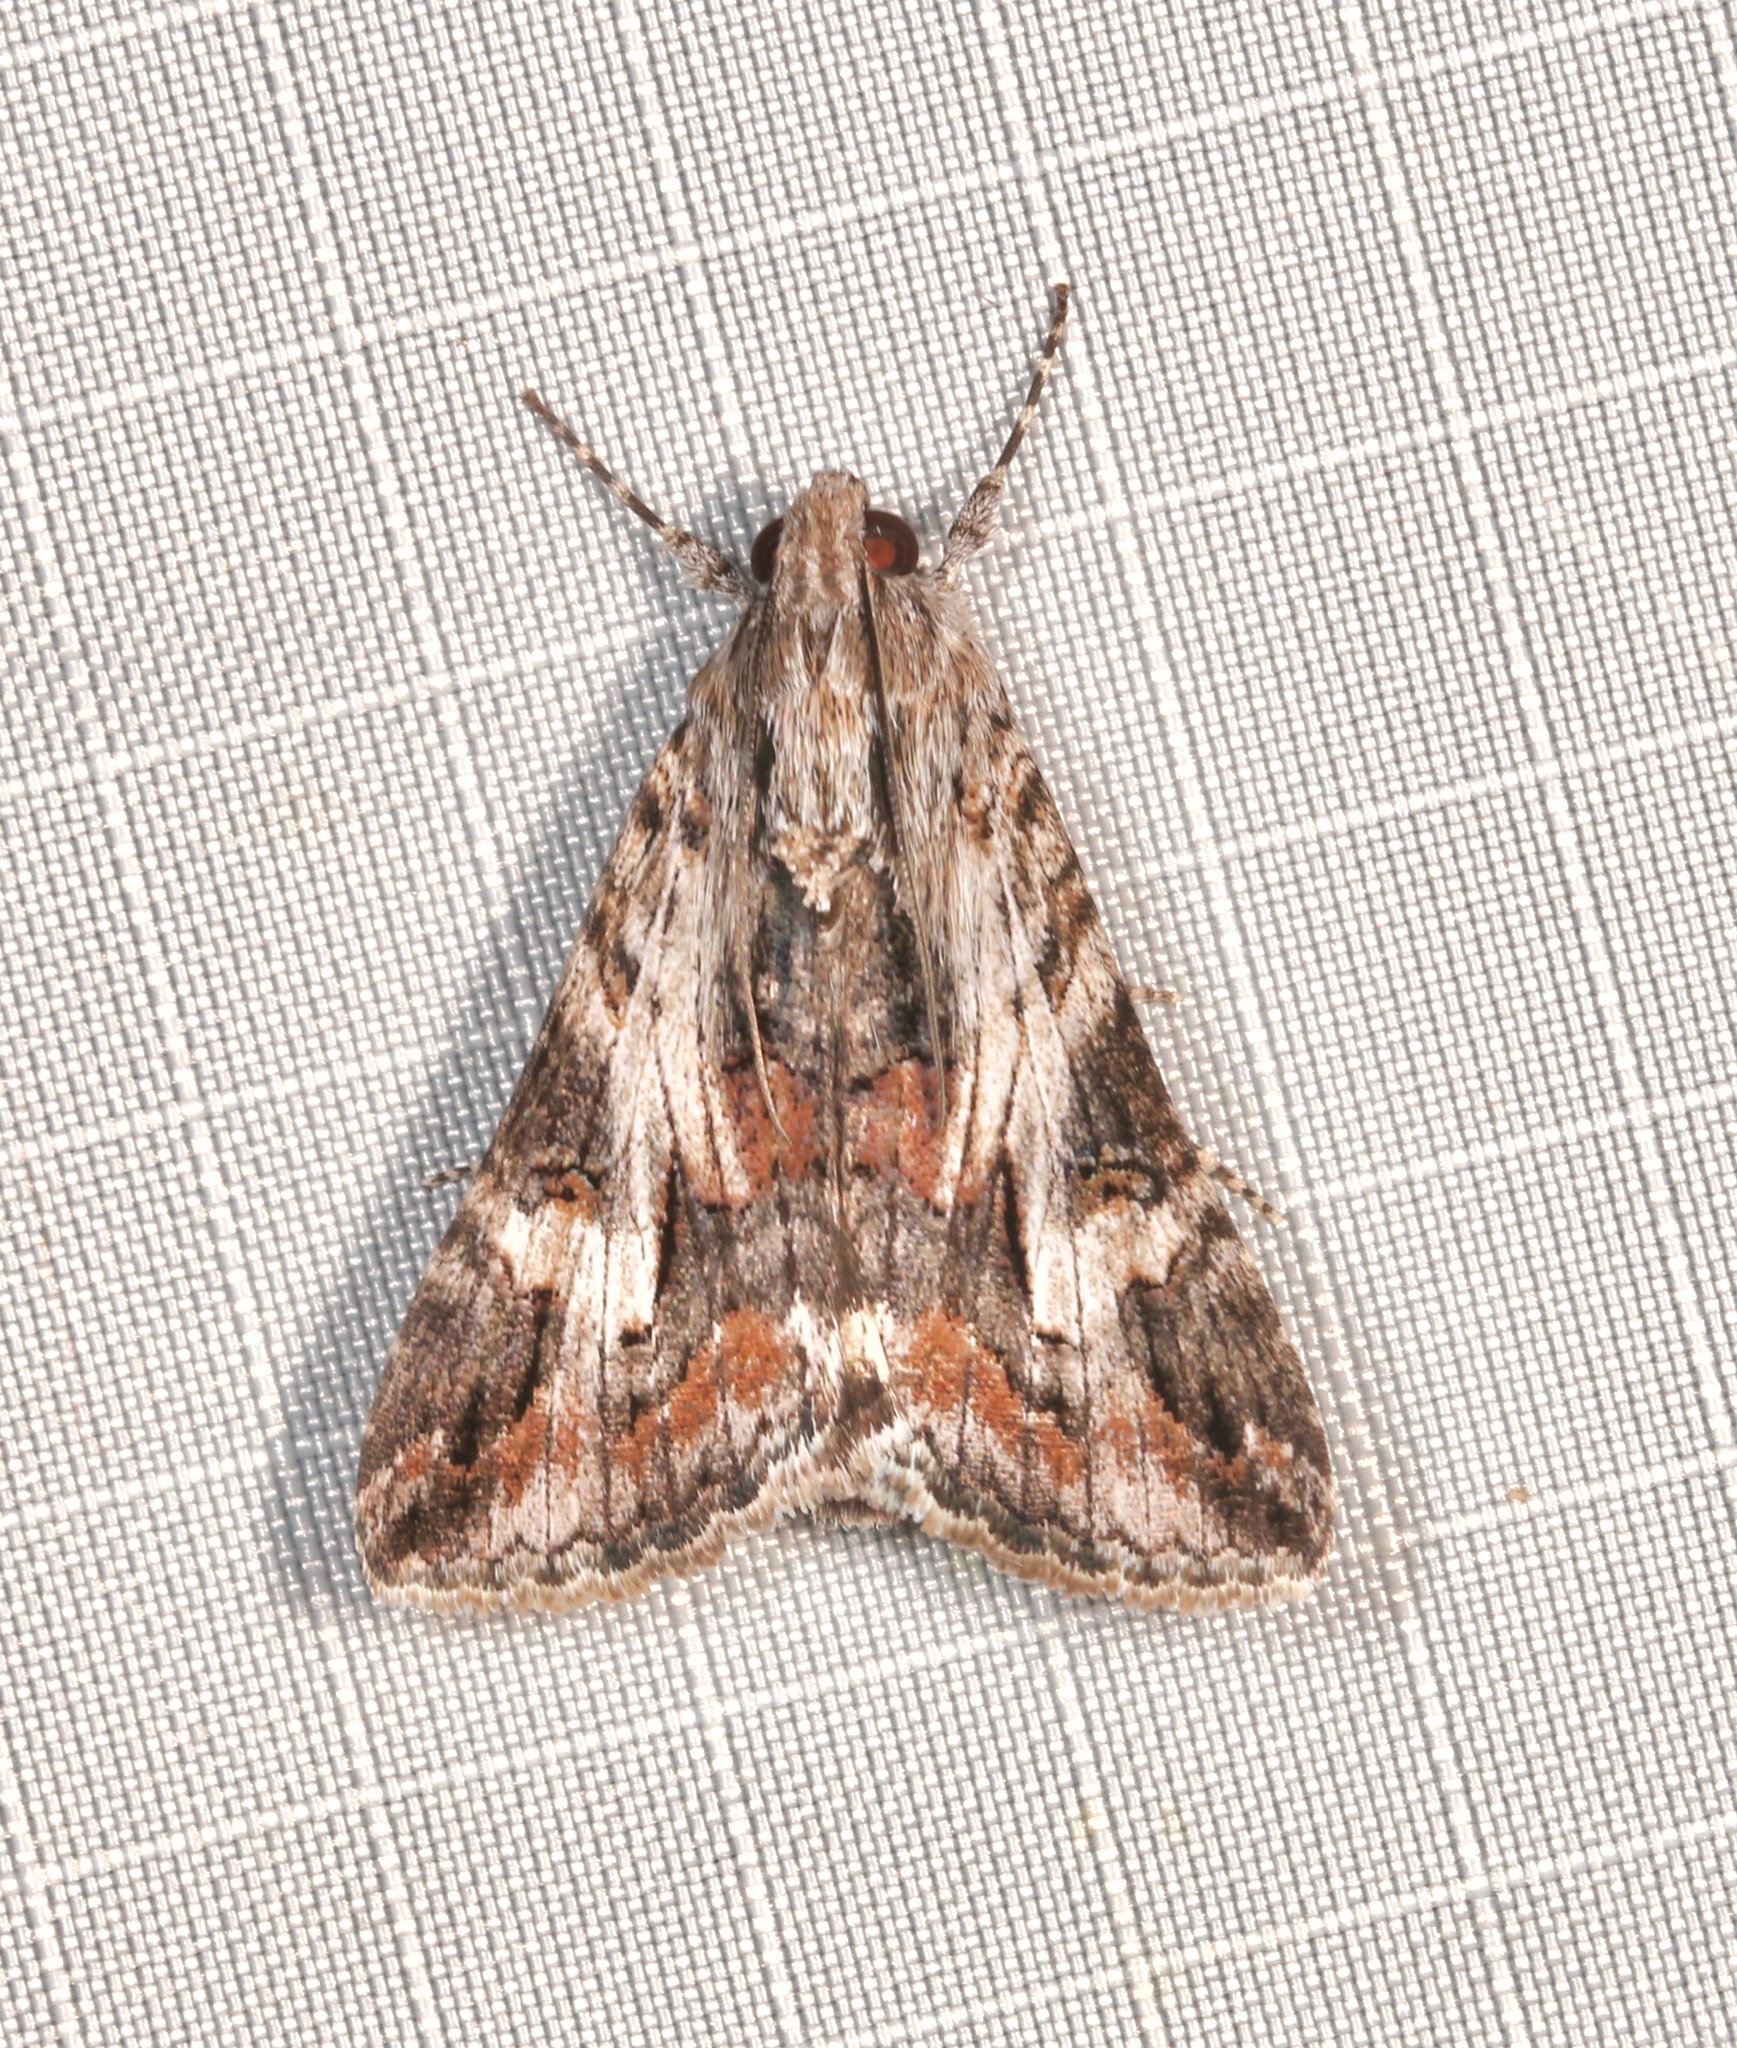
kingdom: Animalia
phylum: Arthropoda
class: Insecta
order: Lepidoptera
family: Erebidae
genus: Melipotis
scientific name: Melipotis jucunda
